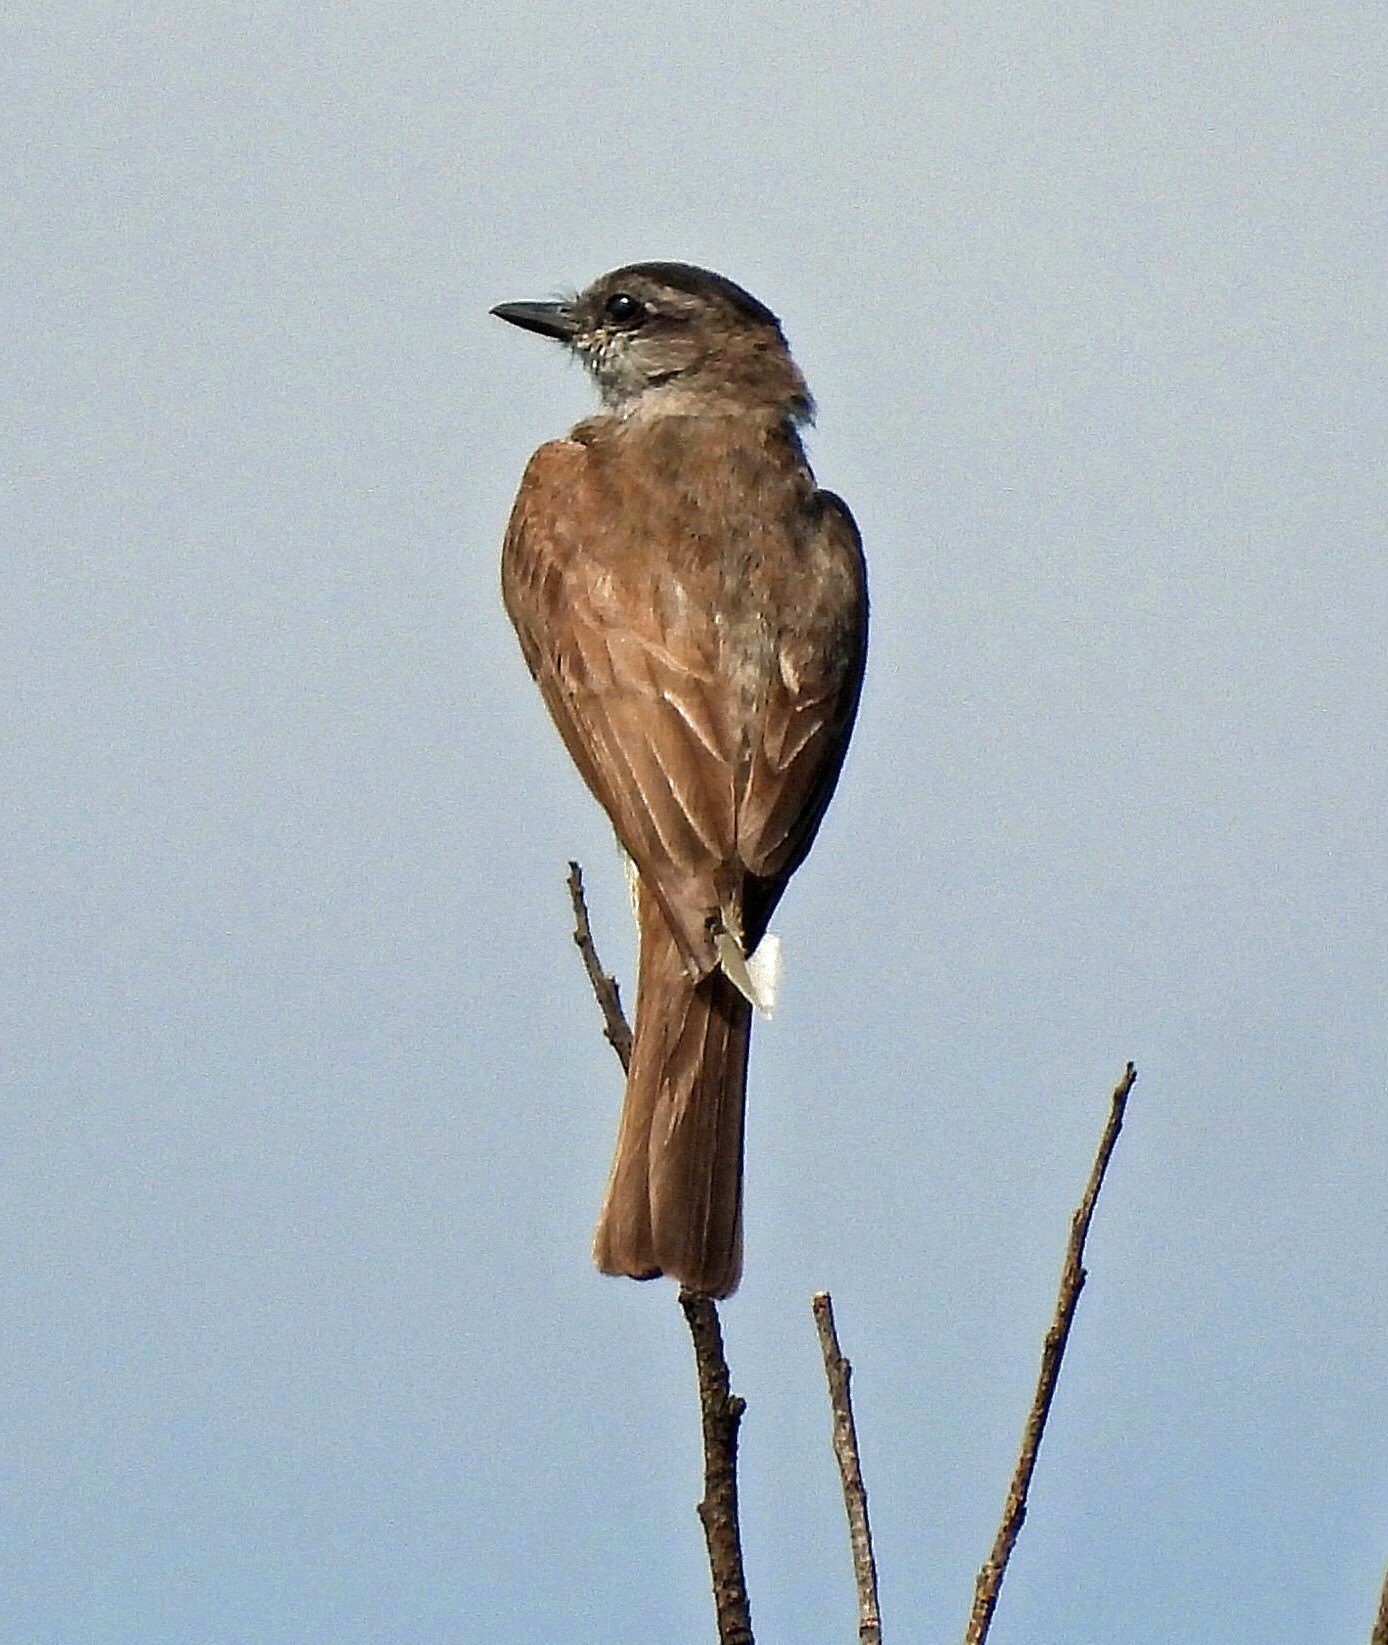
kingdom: Animalia
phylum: Chordata
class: Aves
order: Passeriformes
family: Tyrannidae
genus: Empidonomus
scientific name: Empidonomus aurantioatrocristatus
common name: Crowned slaty flycatcher
